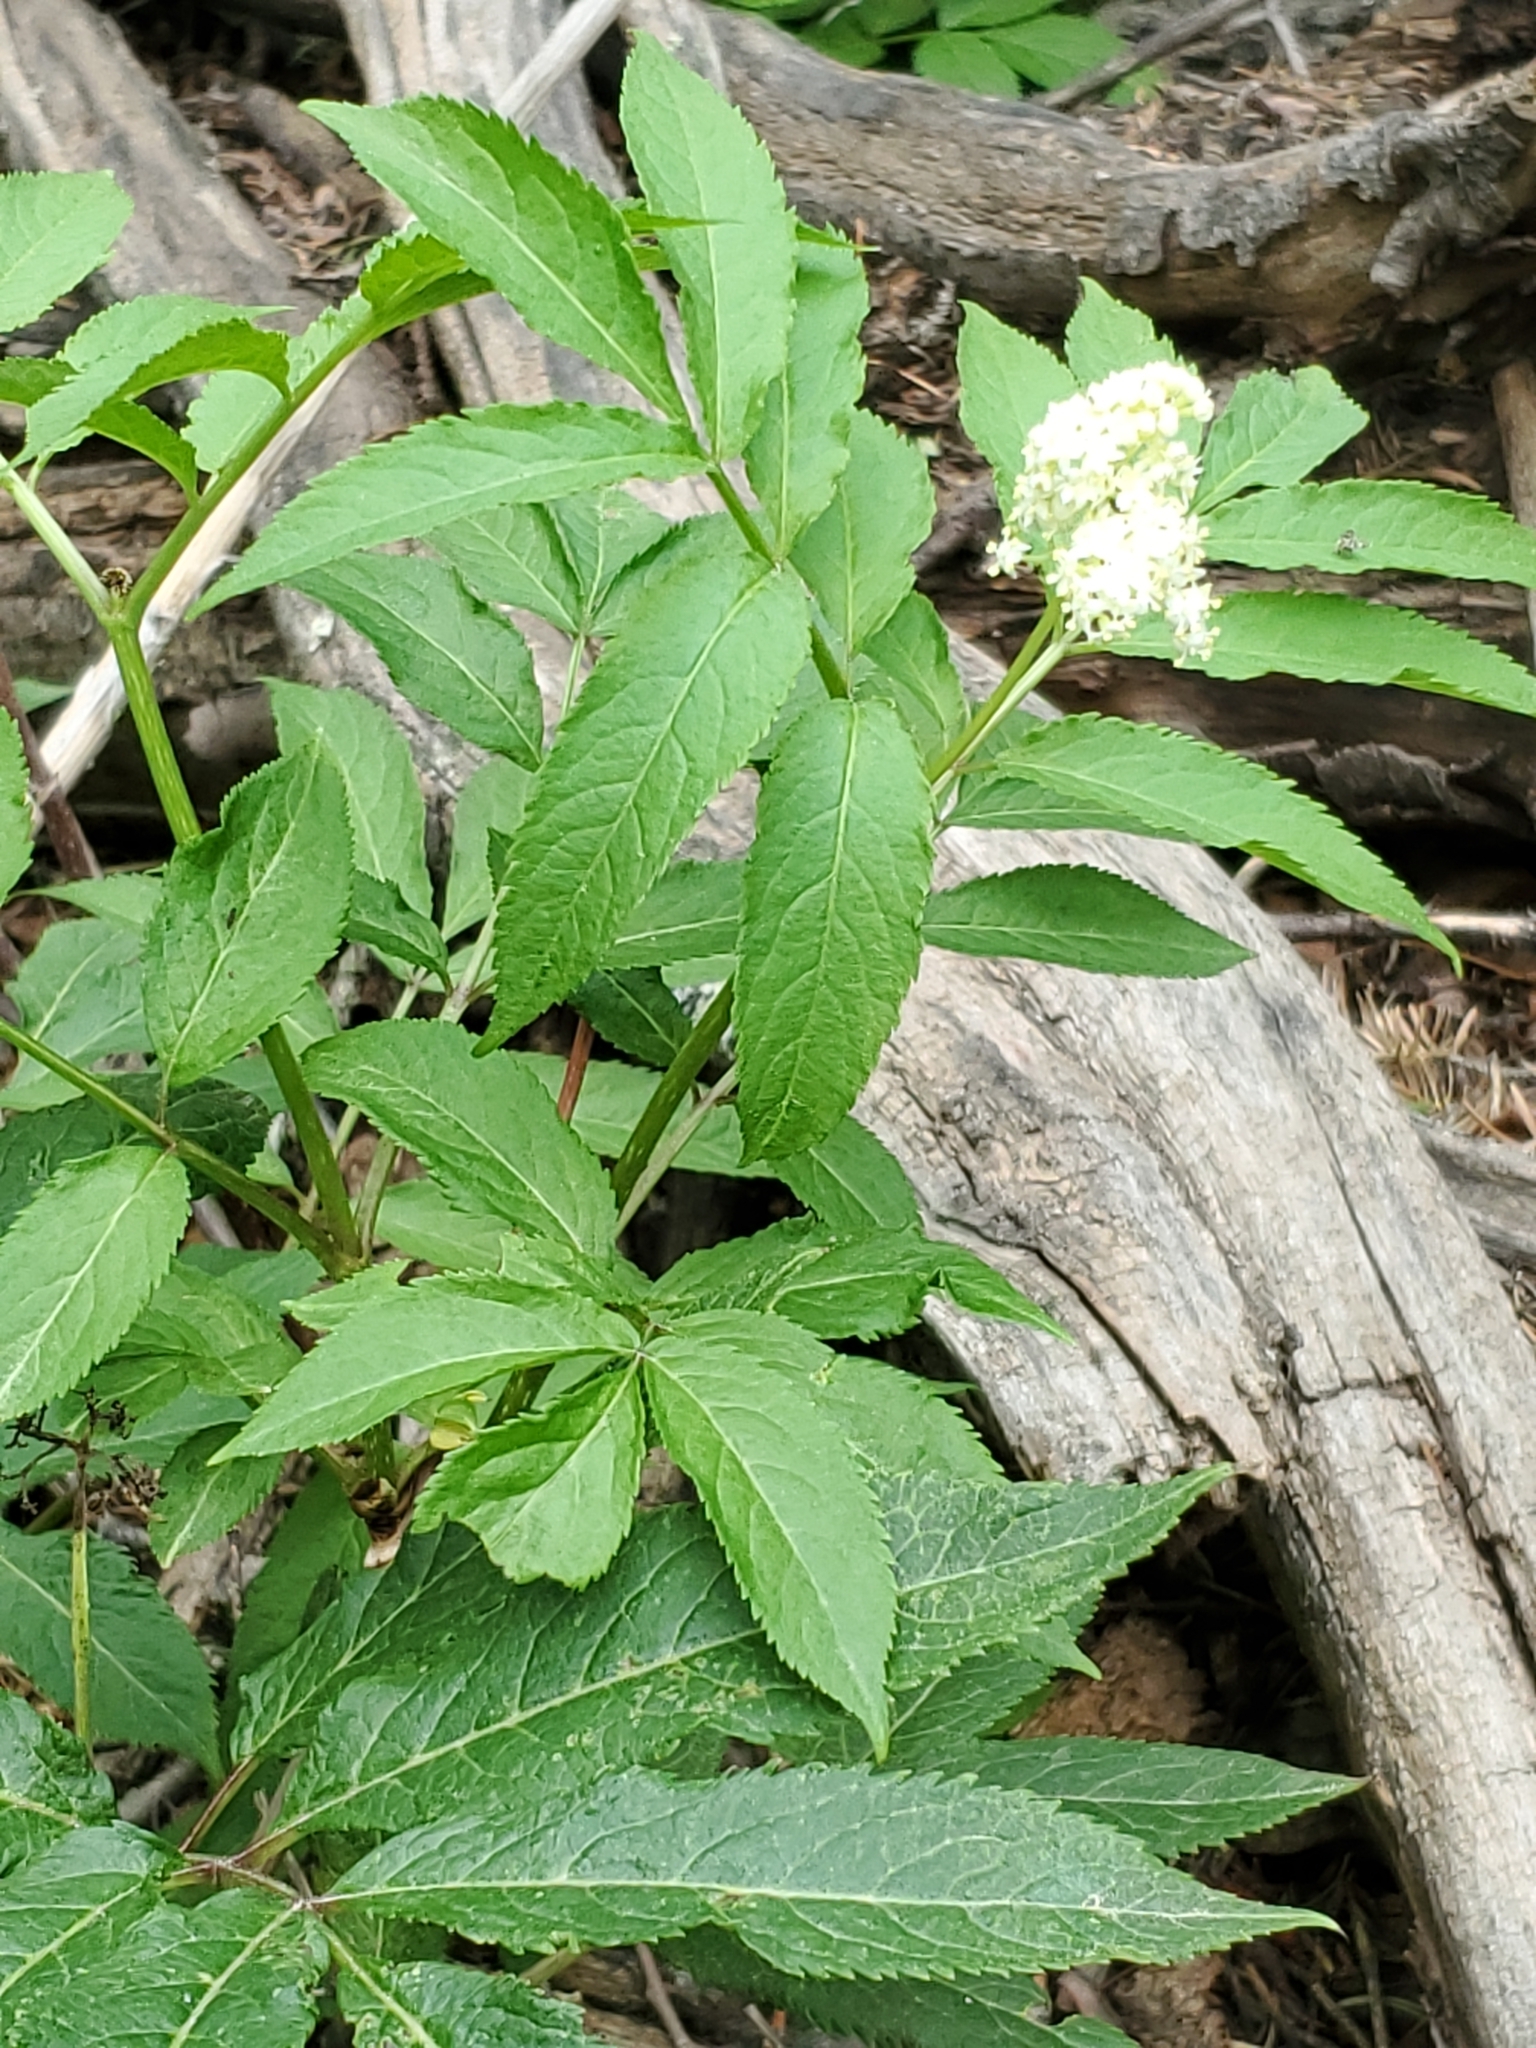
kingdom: Plantae
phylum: Tracheophyta
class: Magnoliopsida
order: Dipsacales
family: Viburnaceae
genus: Sambucus
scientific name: Sambucus racemosa
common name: Red-berried elder
